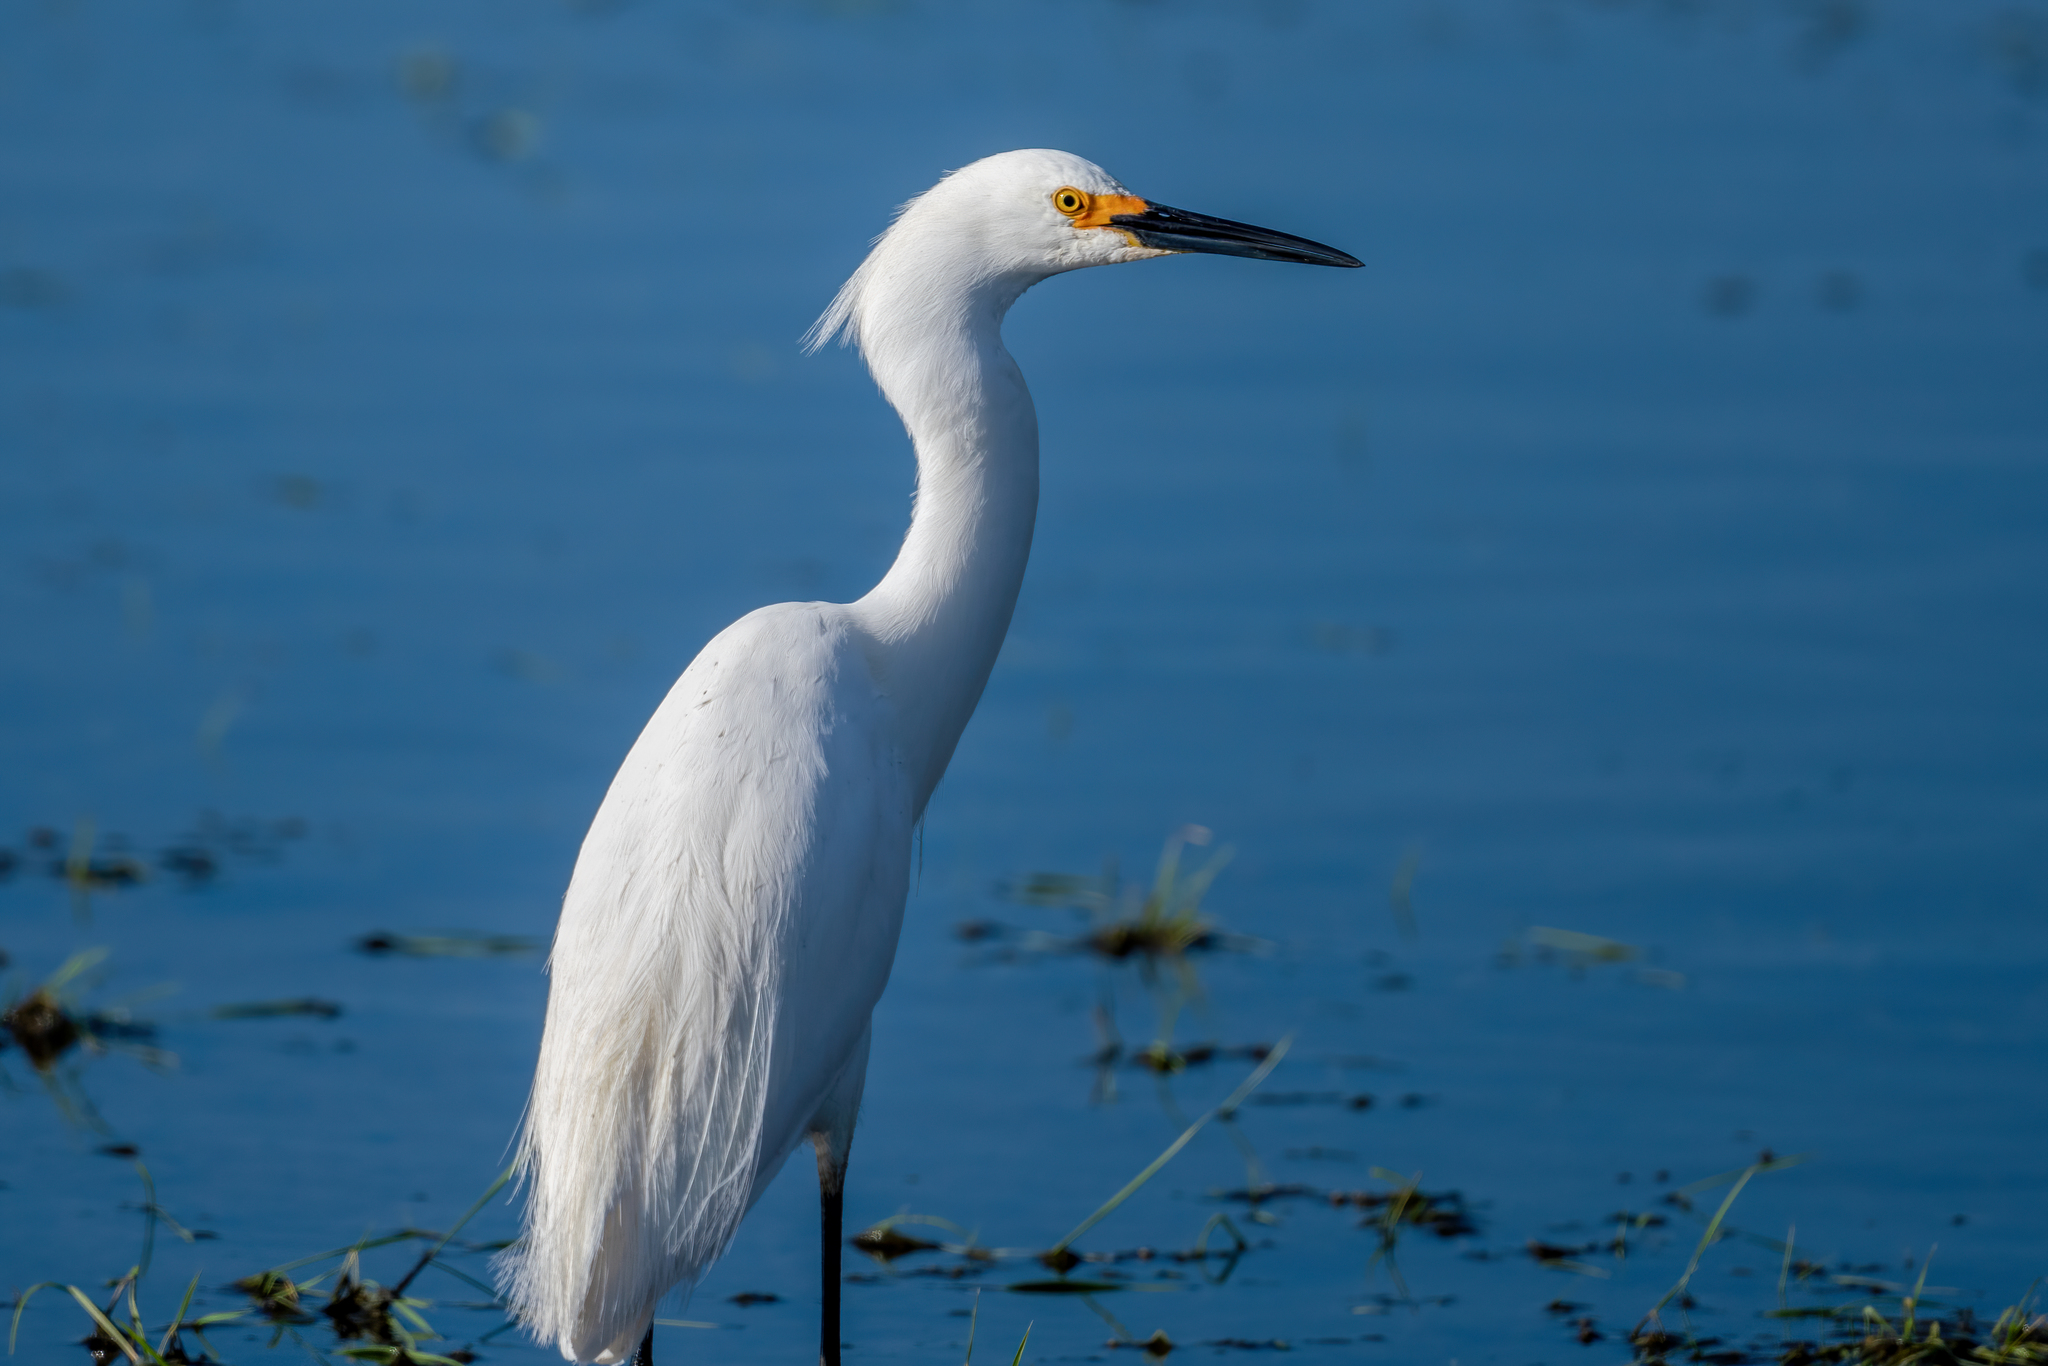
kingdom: Animalia
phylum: Chordata
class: Aves
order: Pelecaniformes
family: Ardeidae
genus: Egretta
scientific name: Egretta thula
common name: Snowy egret
